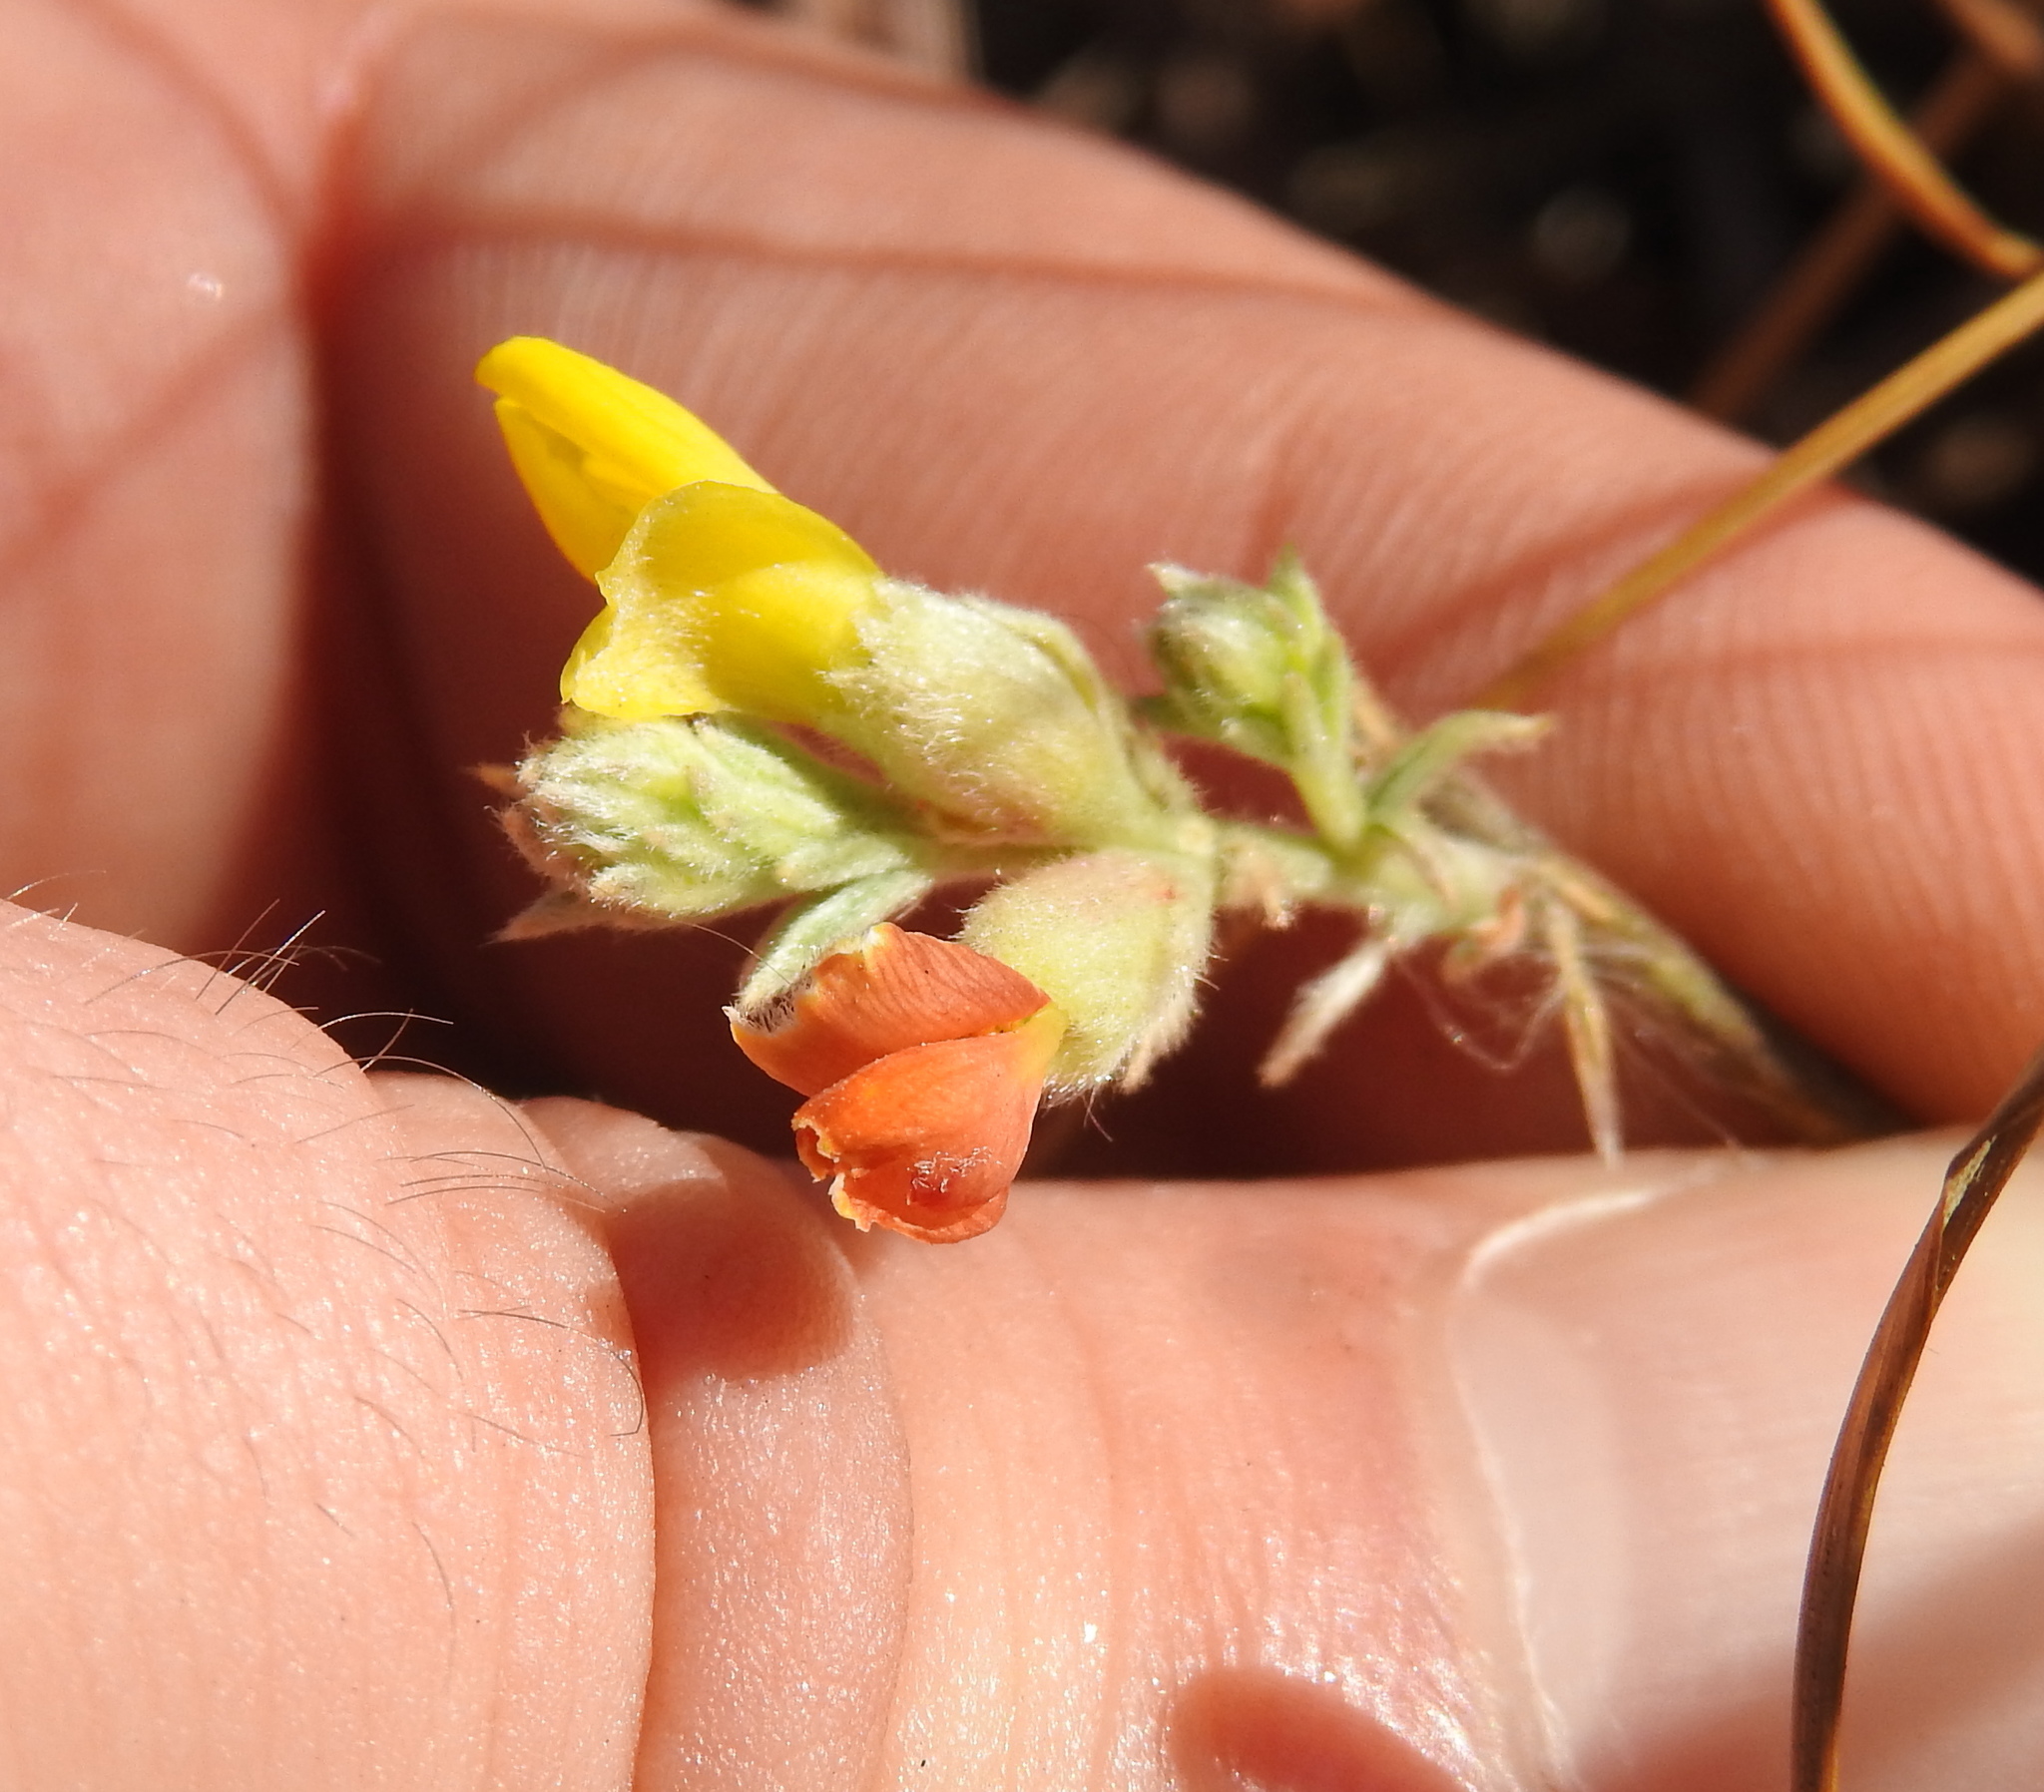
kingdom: Plantae
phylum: Tracheophyta
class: Magnoliopsida
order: Fabales
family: Fabaceae
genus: Pearsonia
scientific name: Pearsonia sessilifolia
